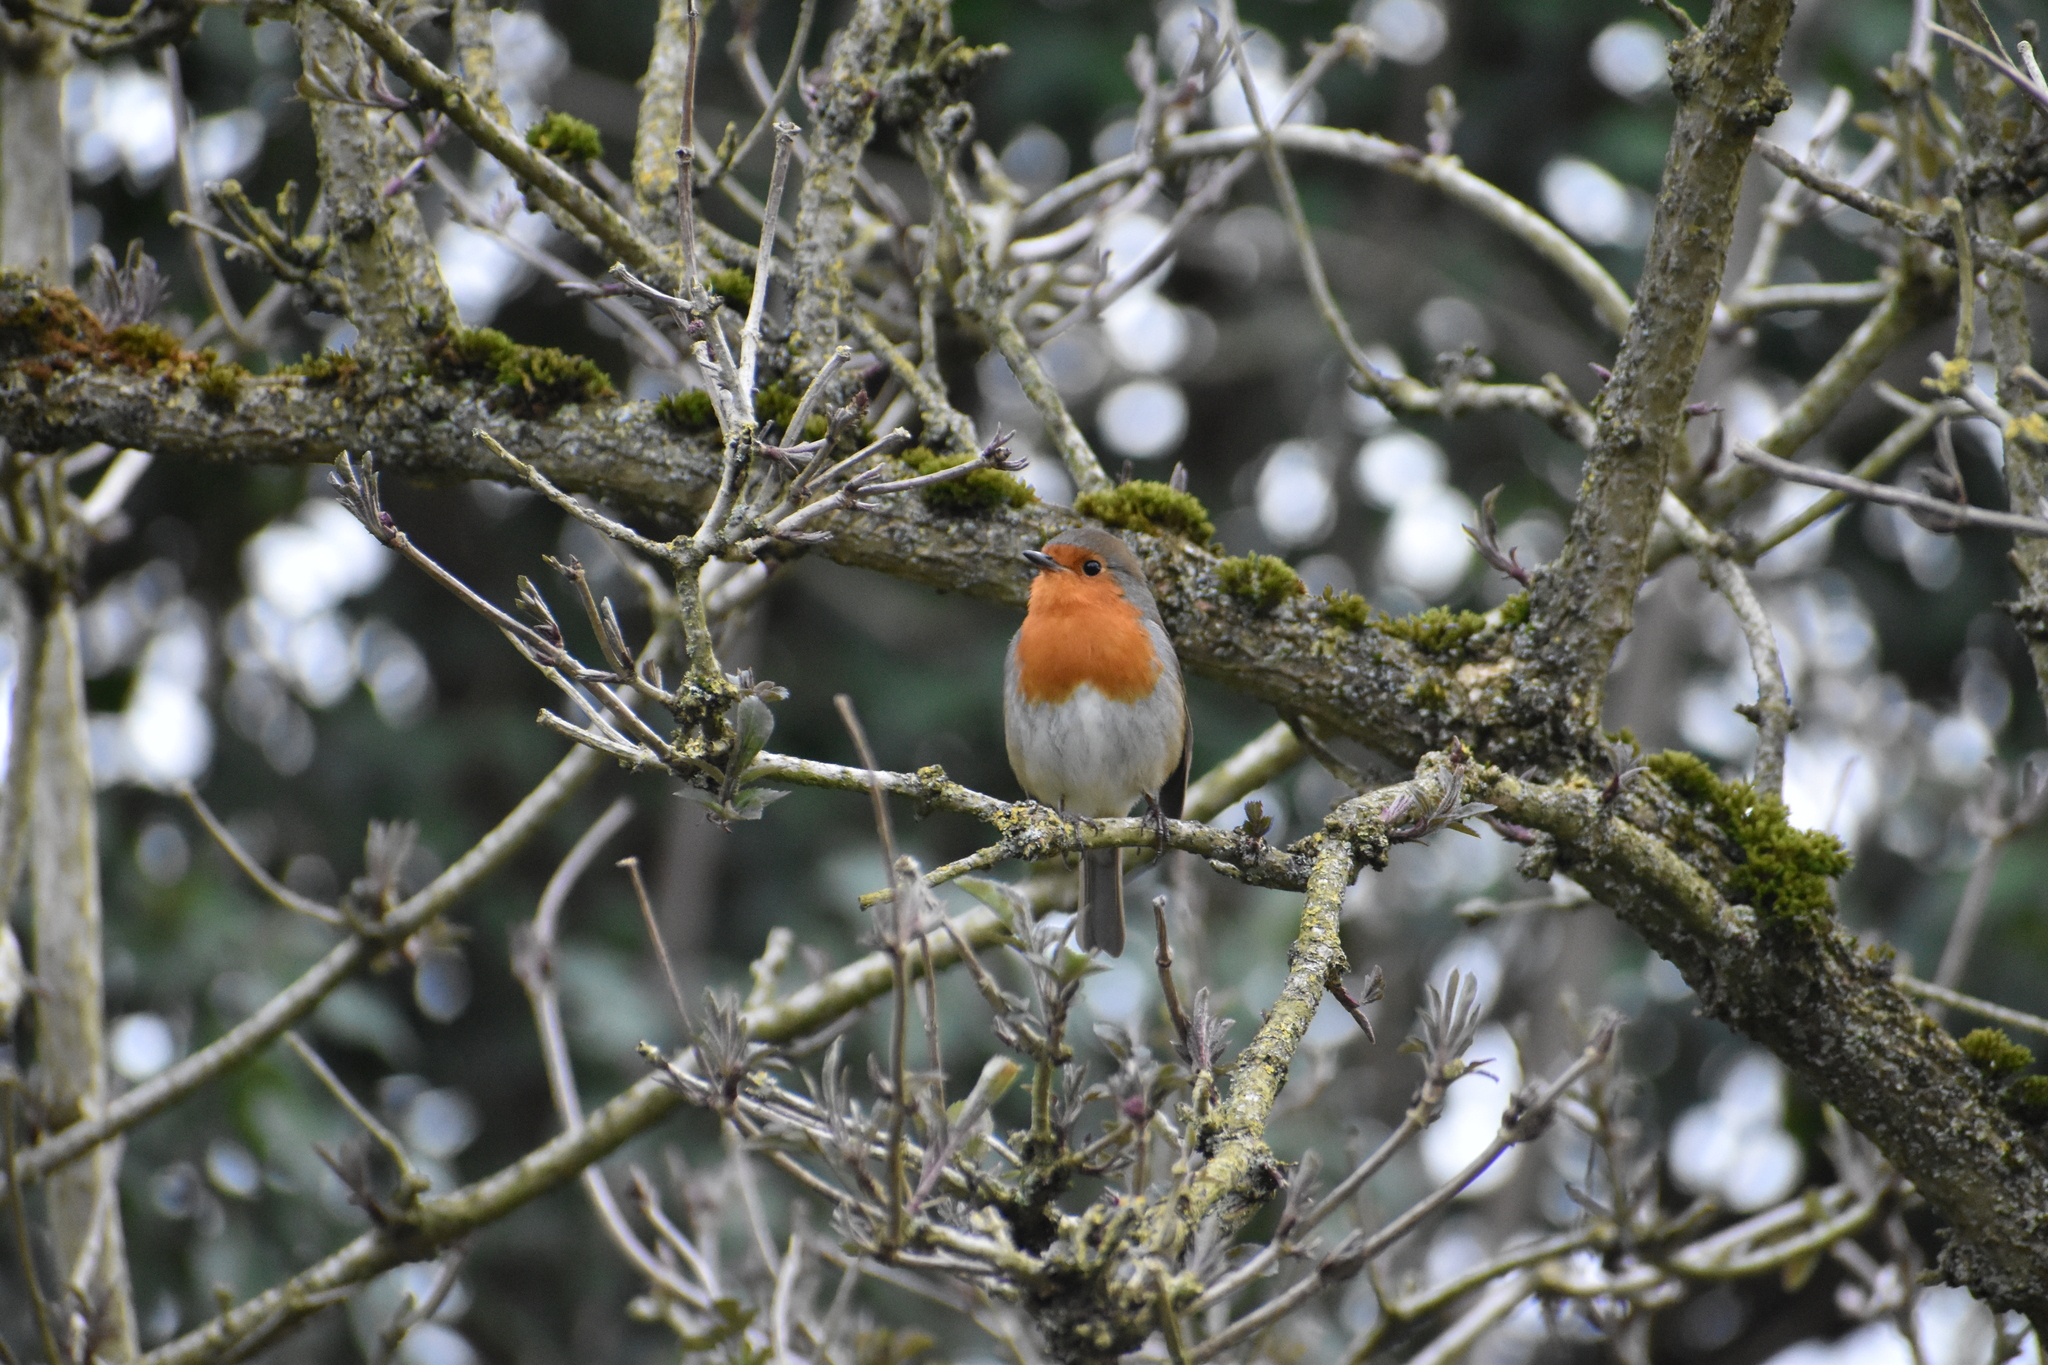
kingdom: Animalia
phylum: Chordata
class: Aves
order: Passeriformes
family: Muscicapidae
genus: Erithacus
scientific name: Erithacus rubecula
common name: European robin
